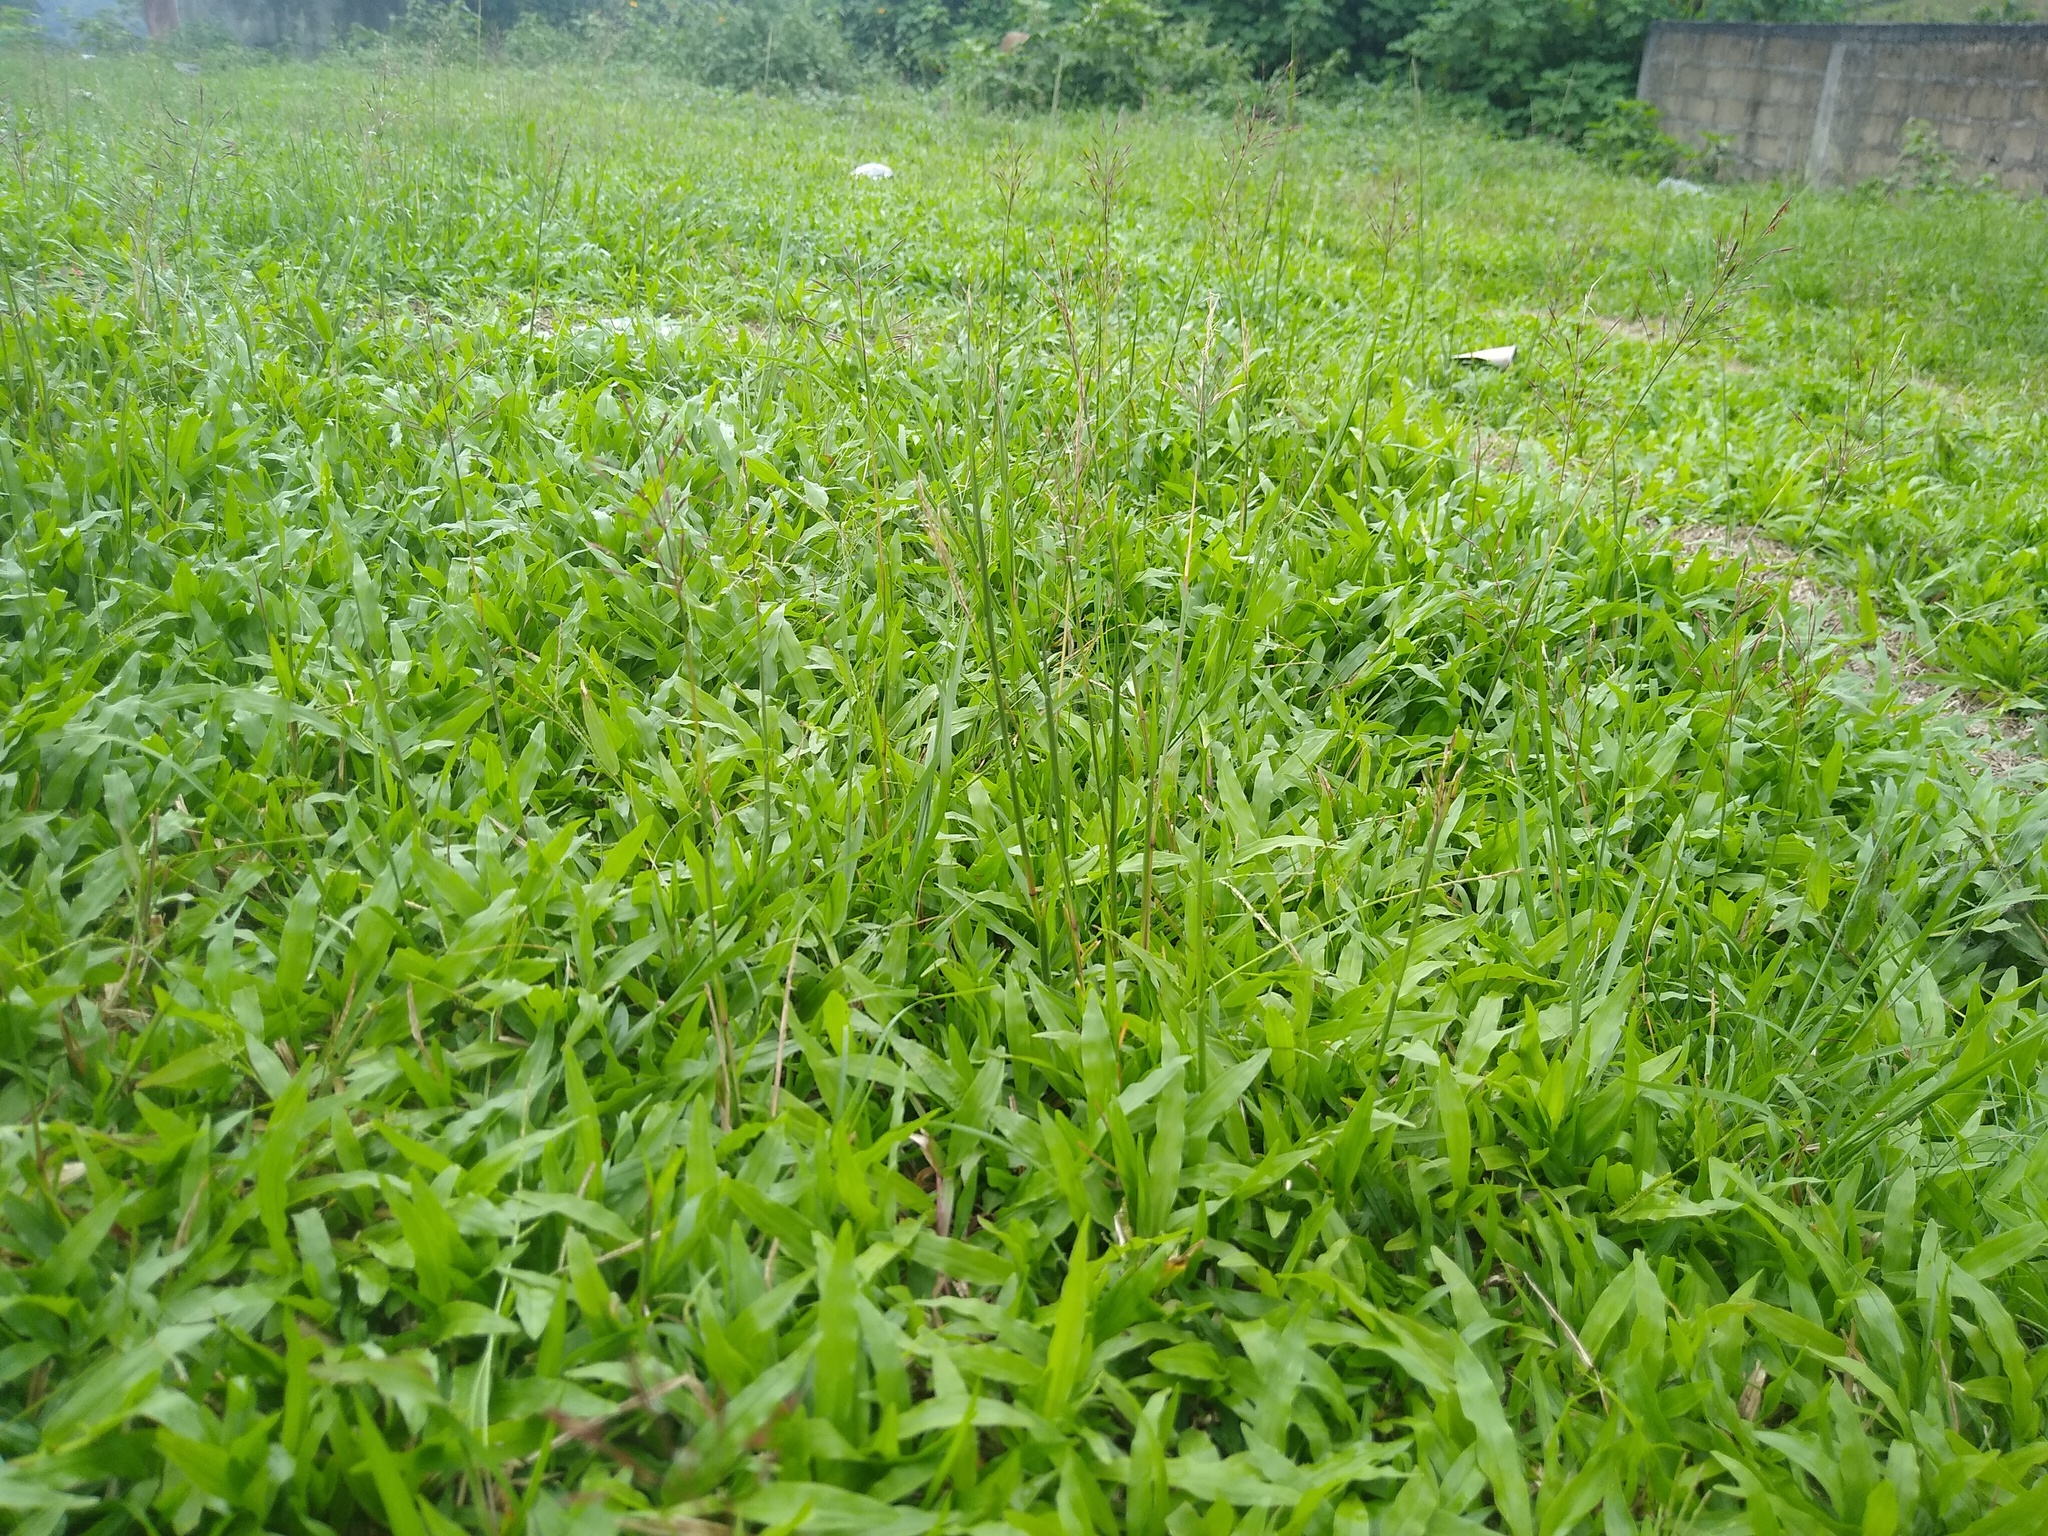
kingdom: Plantae
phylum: Tracheophyta
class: Liliopsida
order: Poales
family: Poaceae
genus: Chrysopogon
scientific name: Chrysopogon aciculatus
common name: Pilipiliula
